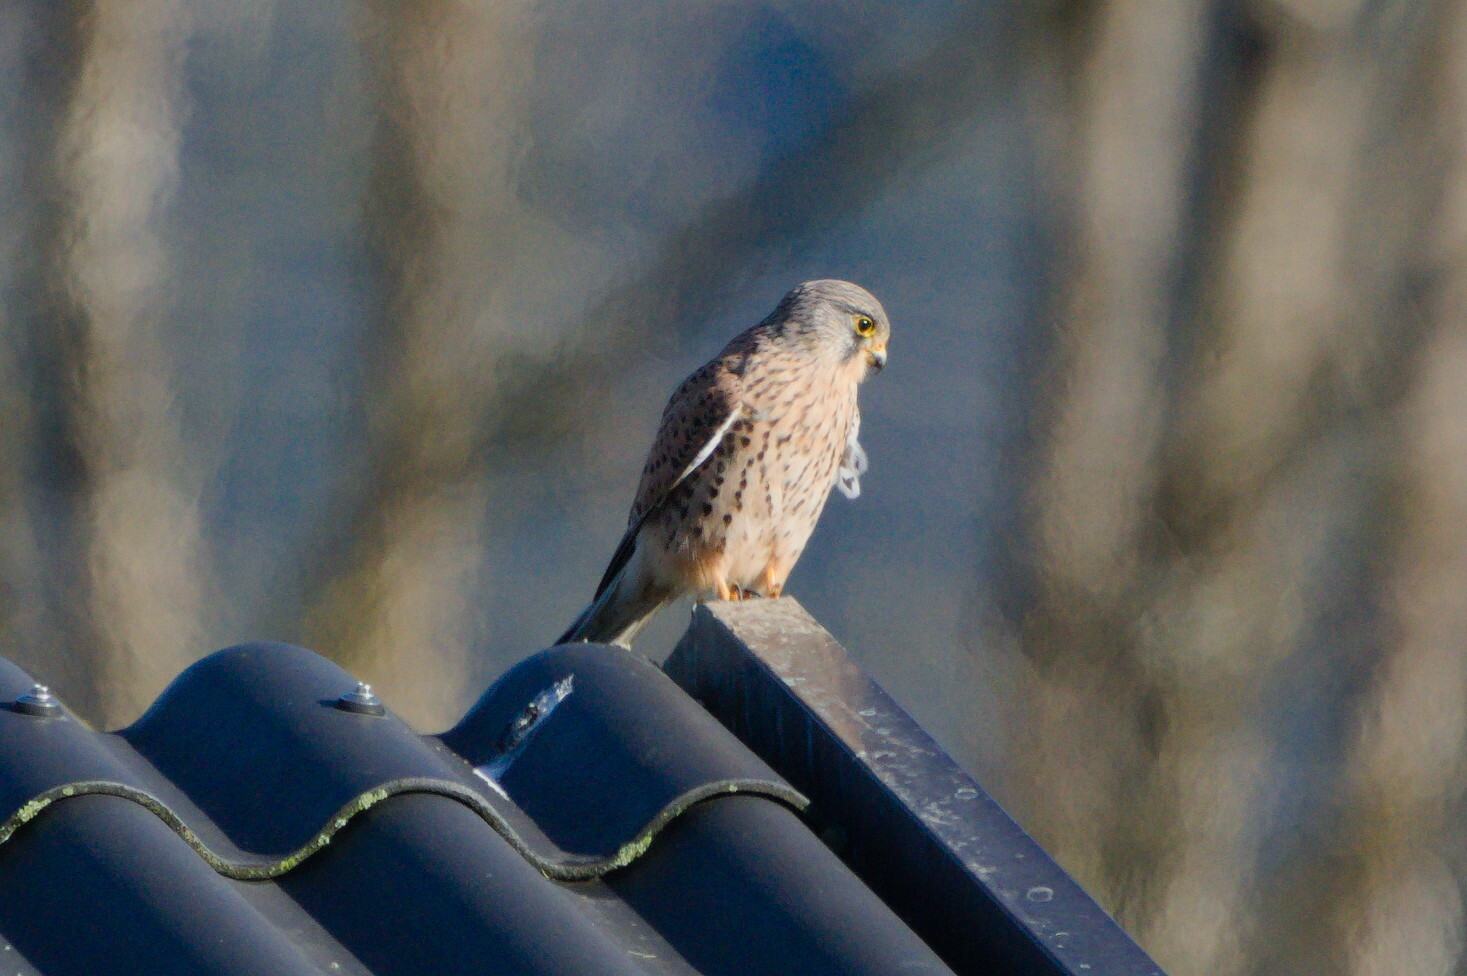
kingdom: Animalia
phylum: Chordata
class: Aves
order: Falconiformes
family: Falconidae
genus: Falco
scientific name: Falco tinnunculus
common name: Common kestrel
